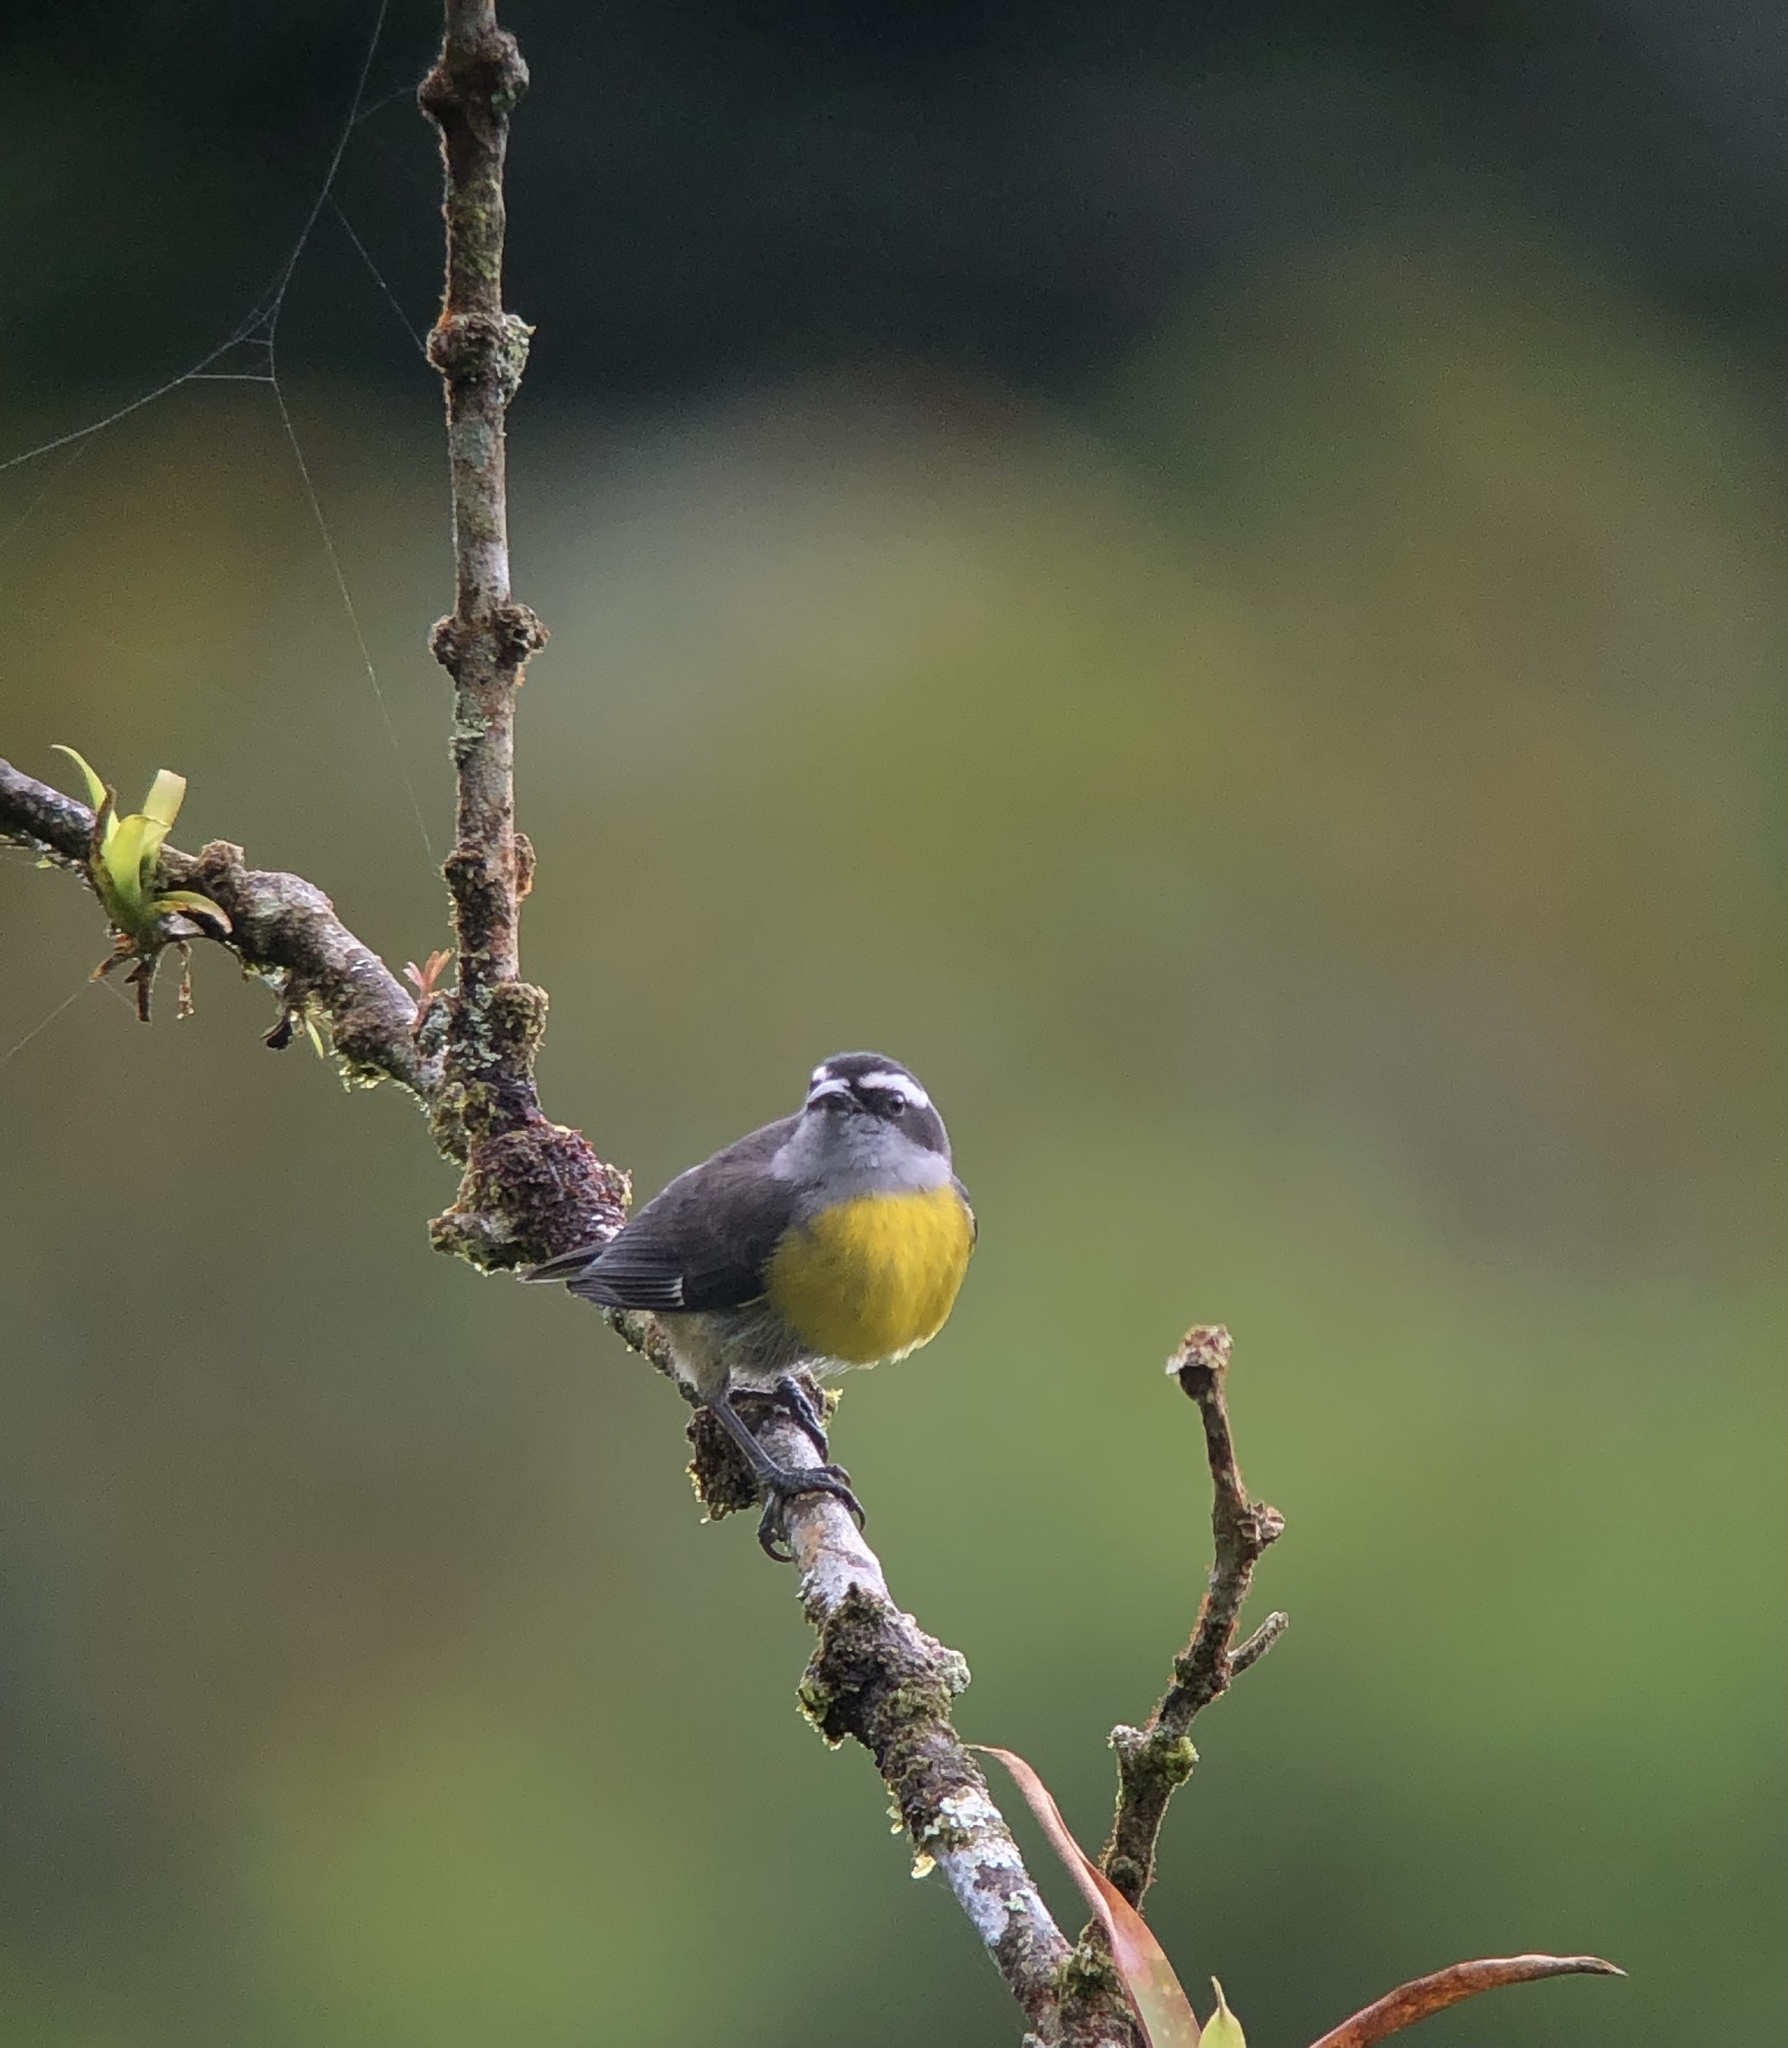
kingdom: Animalia
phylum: Chordata
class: Aves
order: Passeriformes
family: Thraupidae
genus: Coereba
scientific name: Coereba flaveola
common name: Bananaquit
